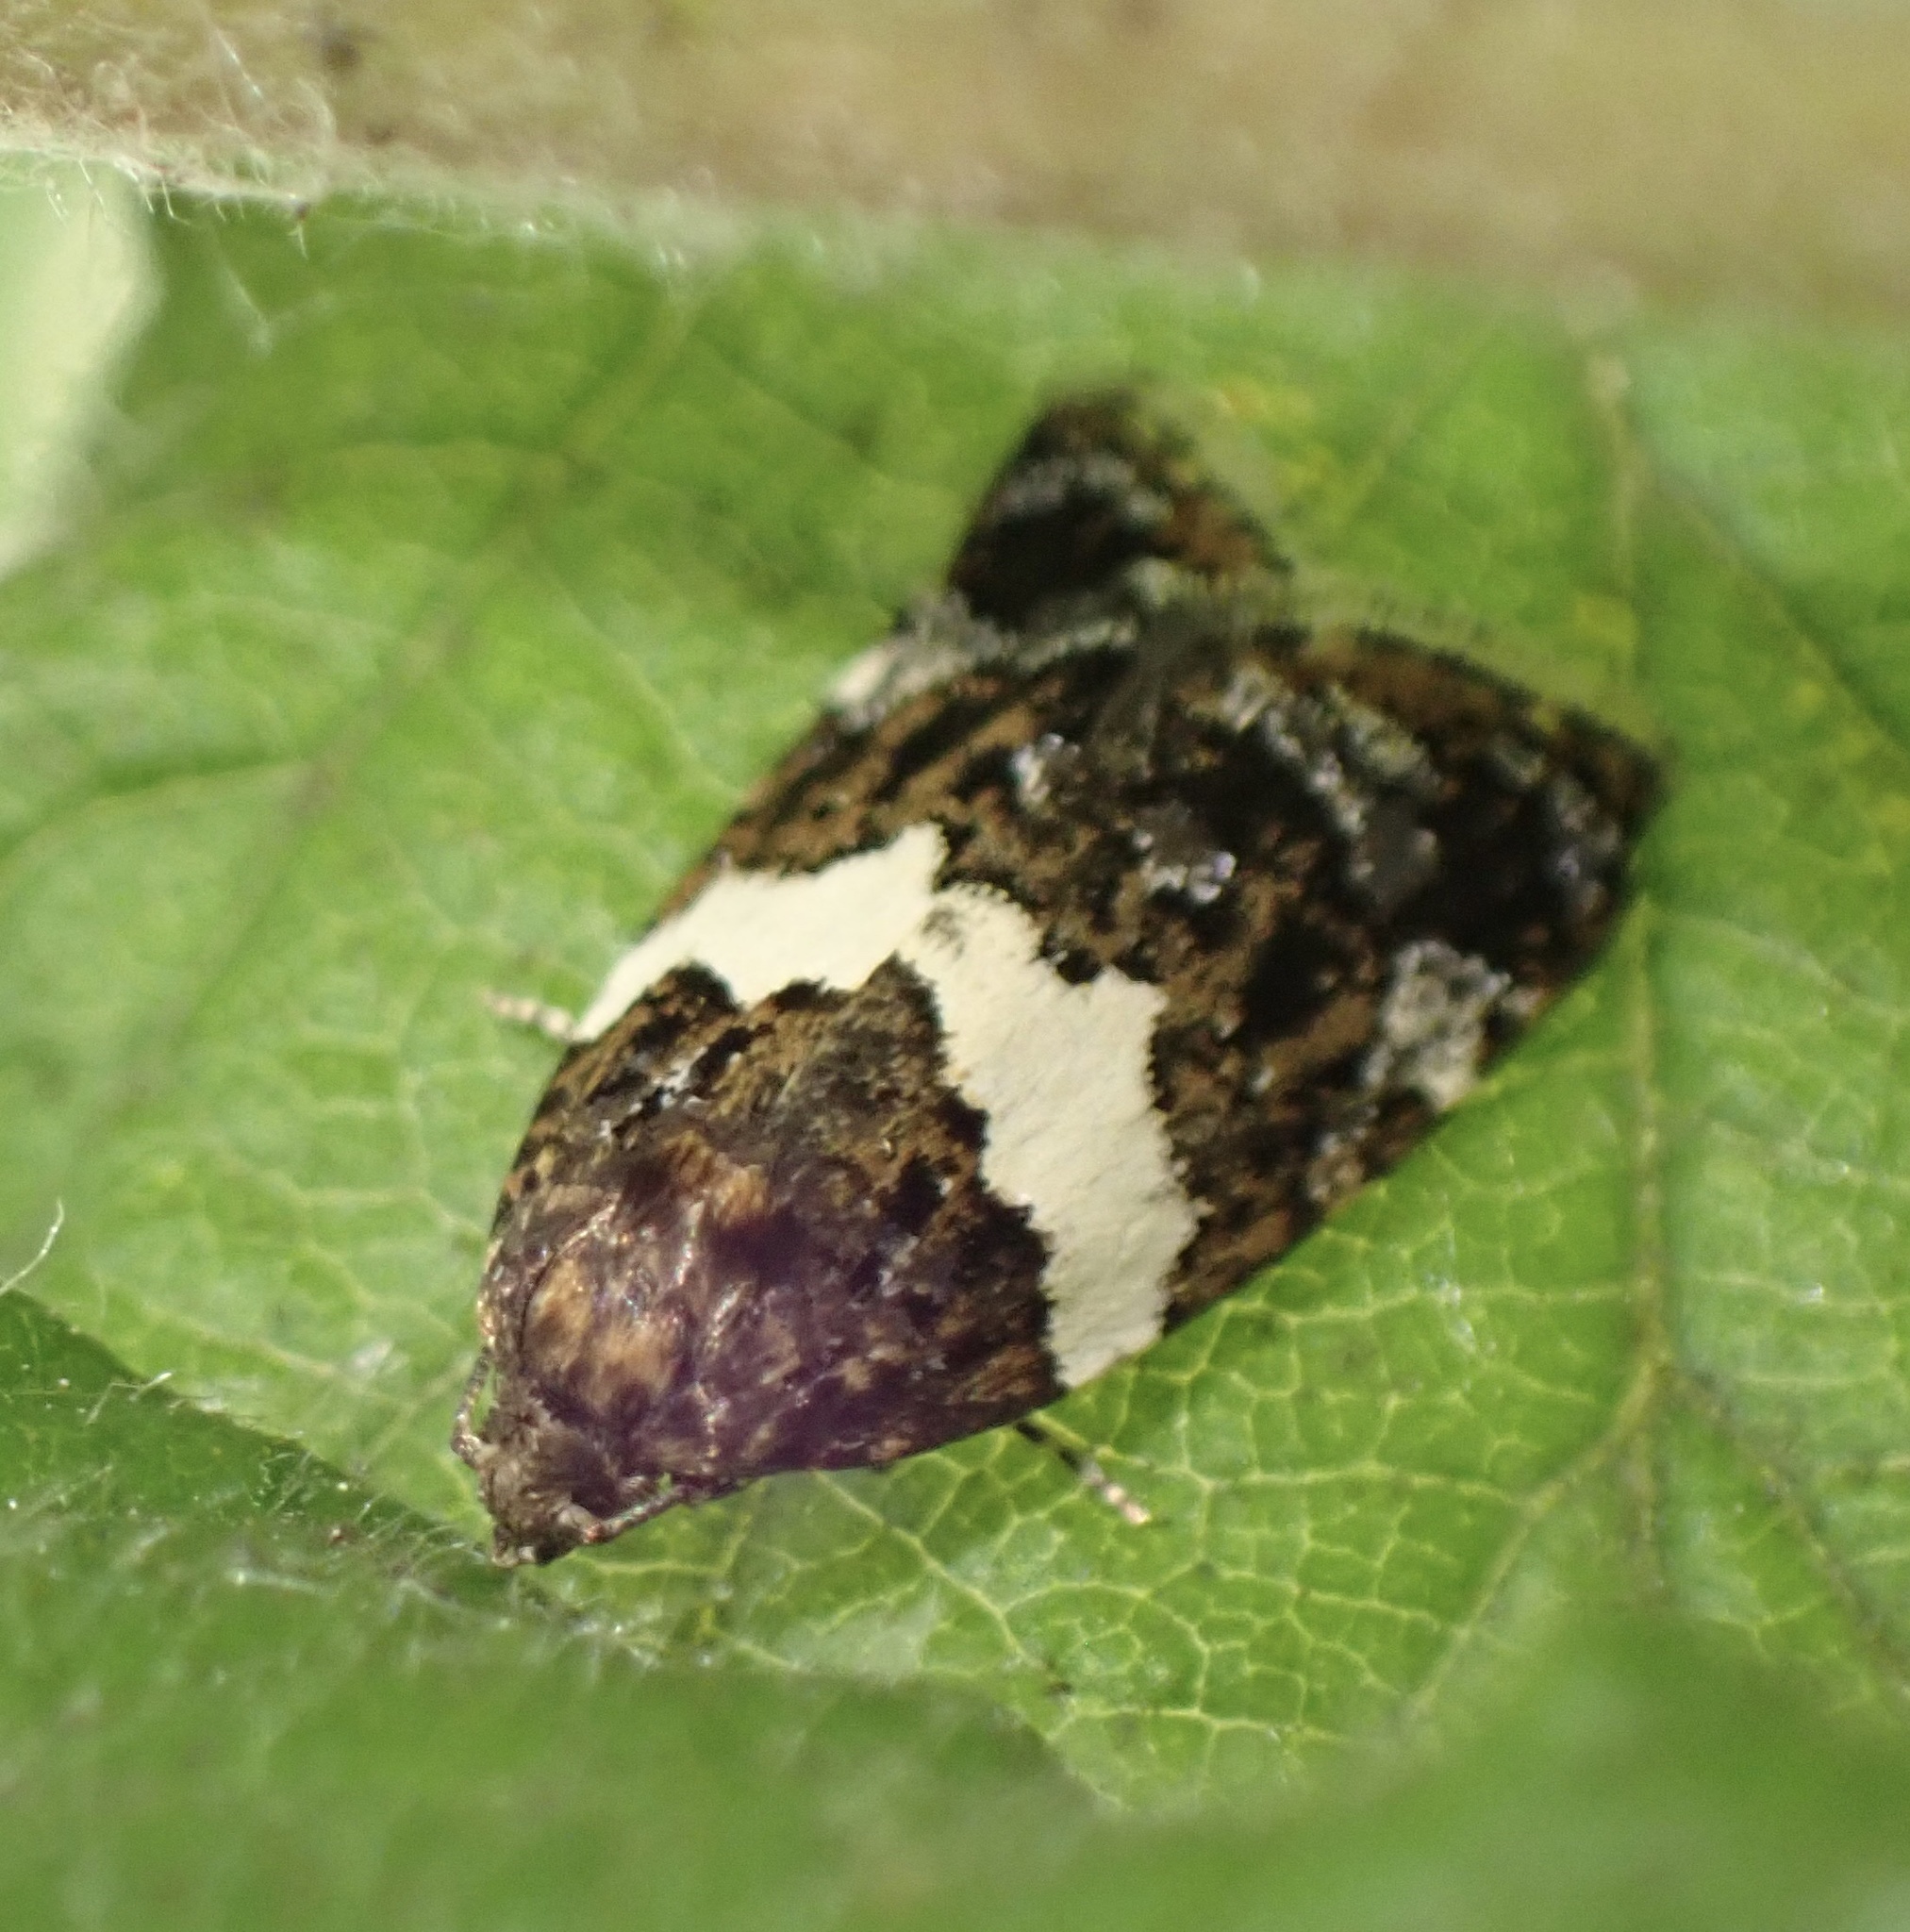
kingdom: Animalia
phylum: Arthropoda
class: Insecta
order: Lepidoptera
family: Tortricidae
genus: Olindia
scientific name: Olindia schumacherana
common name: White-barred tortrix
